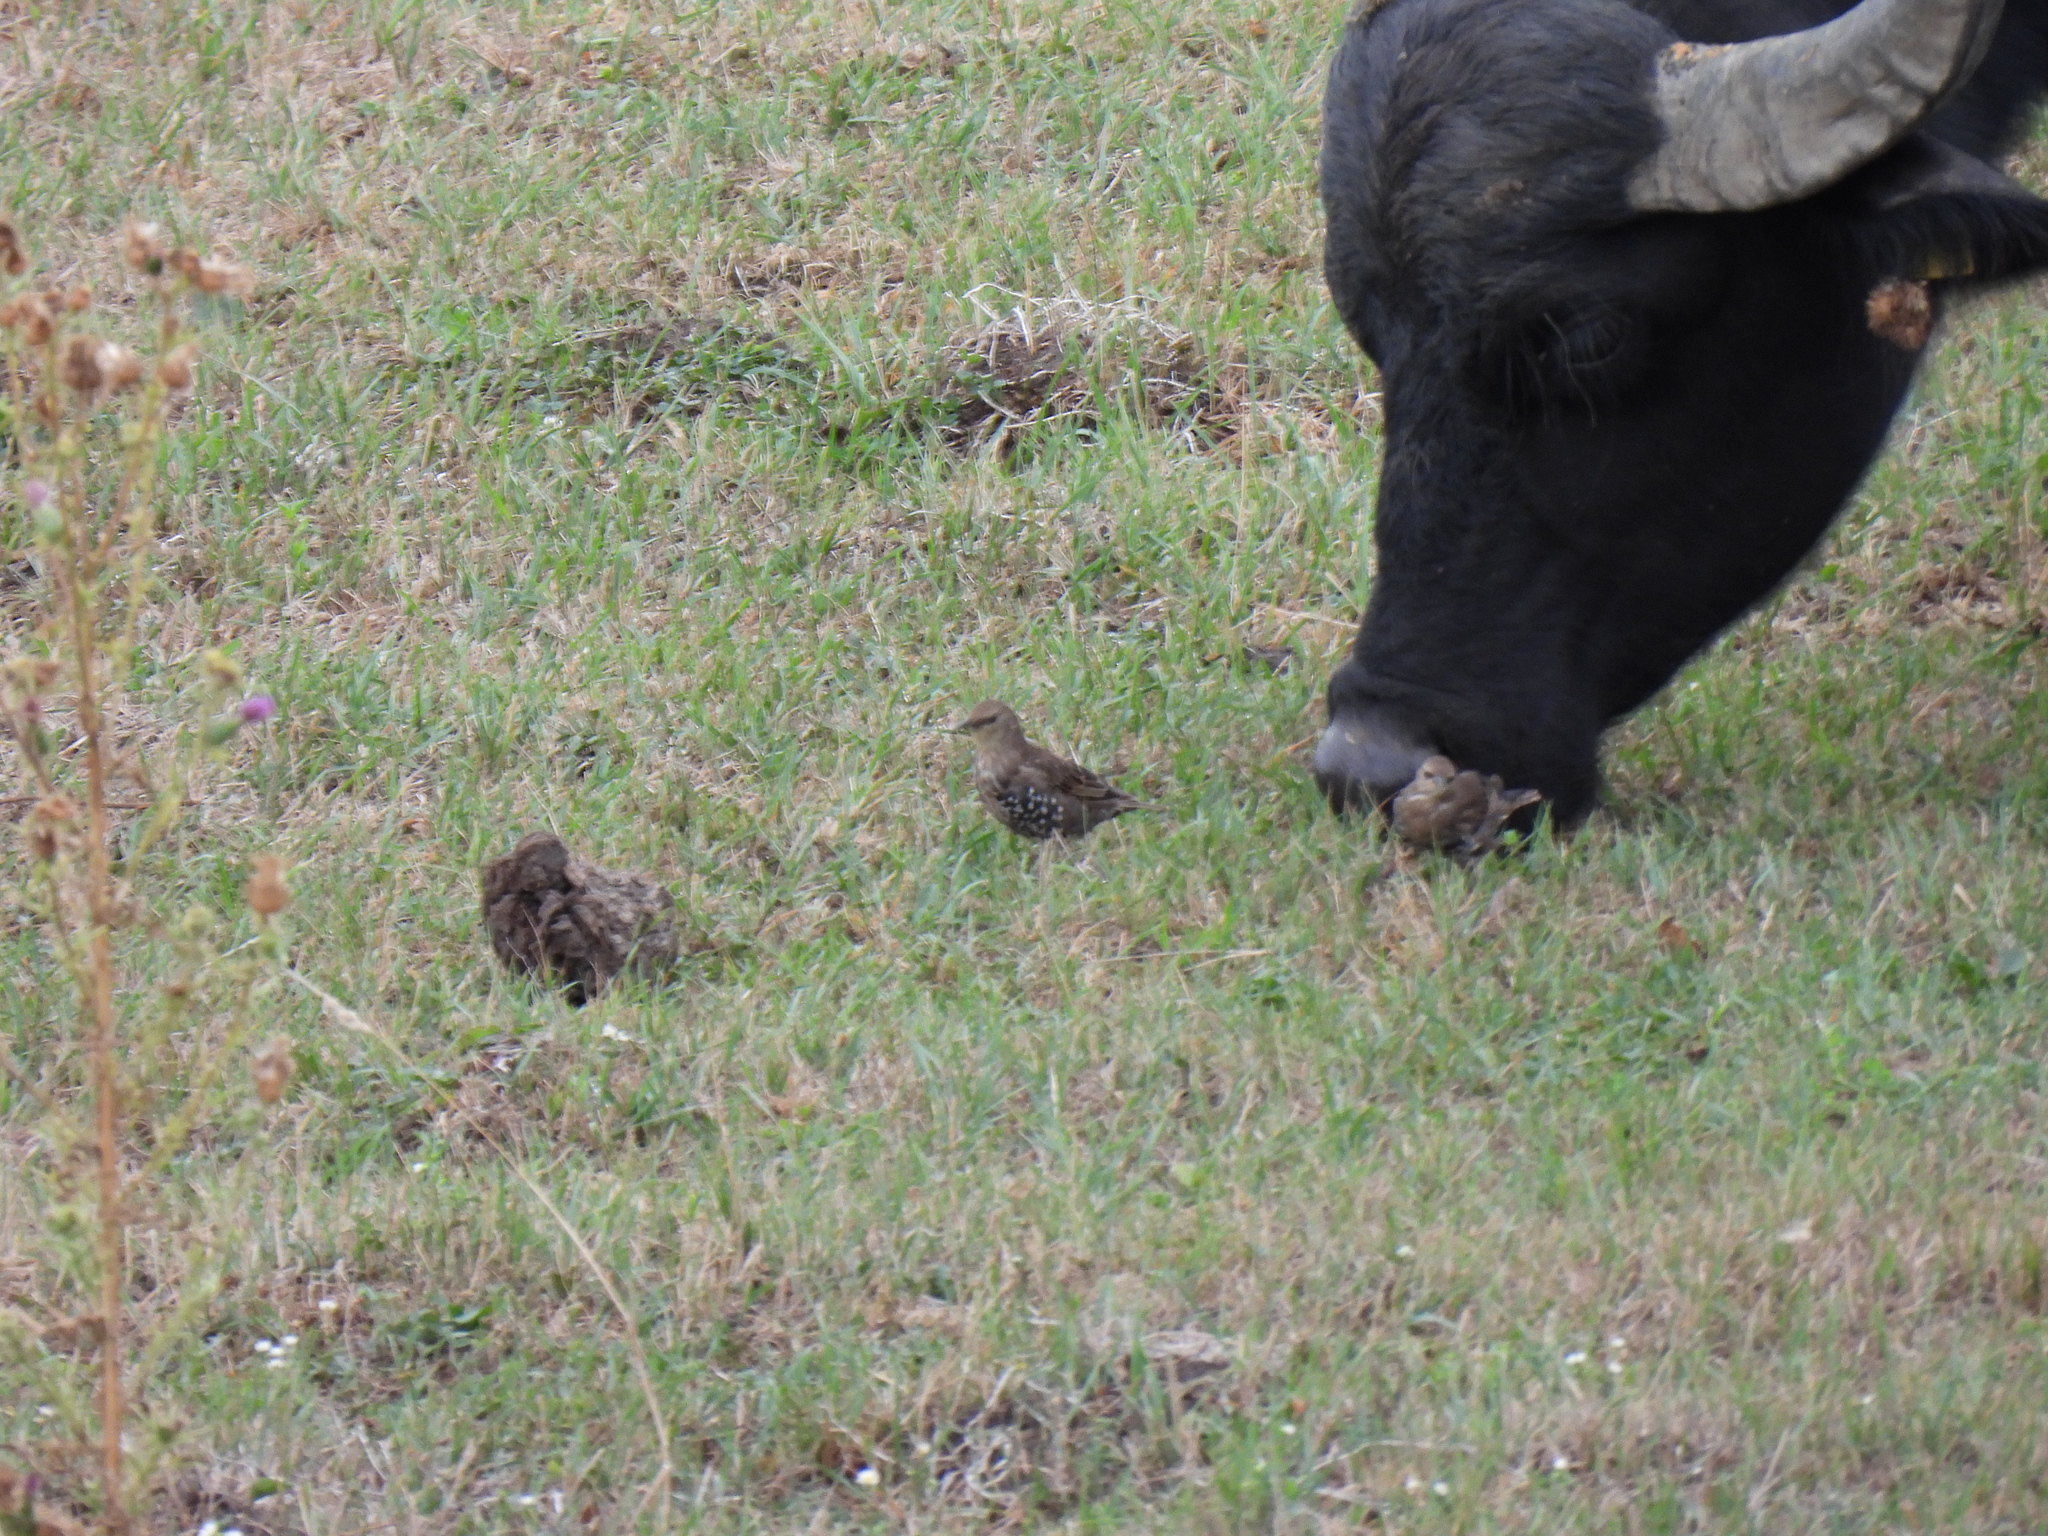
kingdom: Animalia
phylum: Chordata
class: Aves
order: Passeriformes
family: Sturnidae
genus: Sturnus
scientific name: Sturnus vulgaris
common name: Common starling
